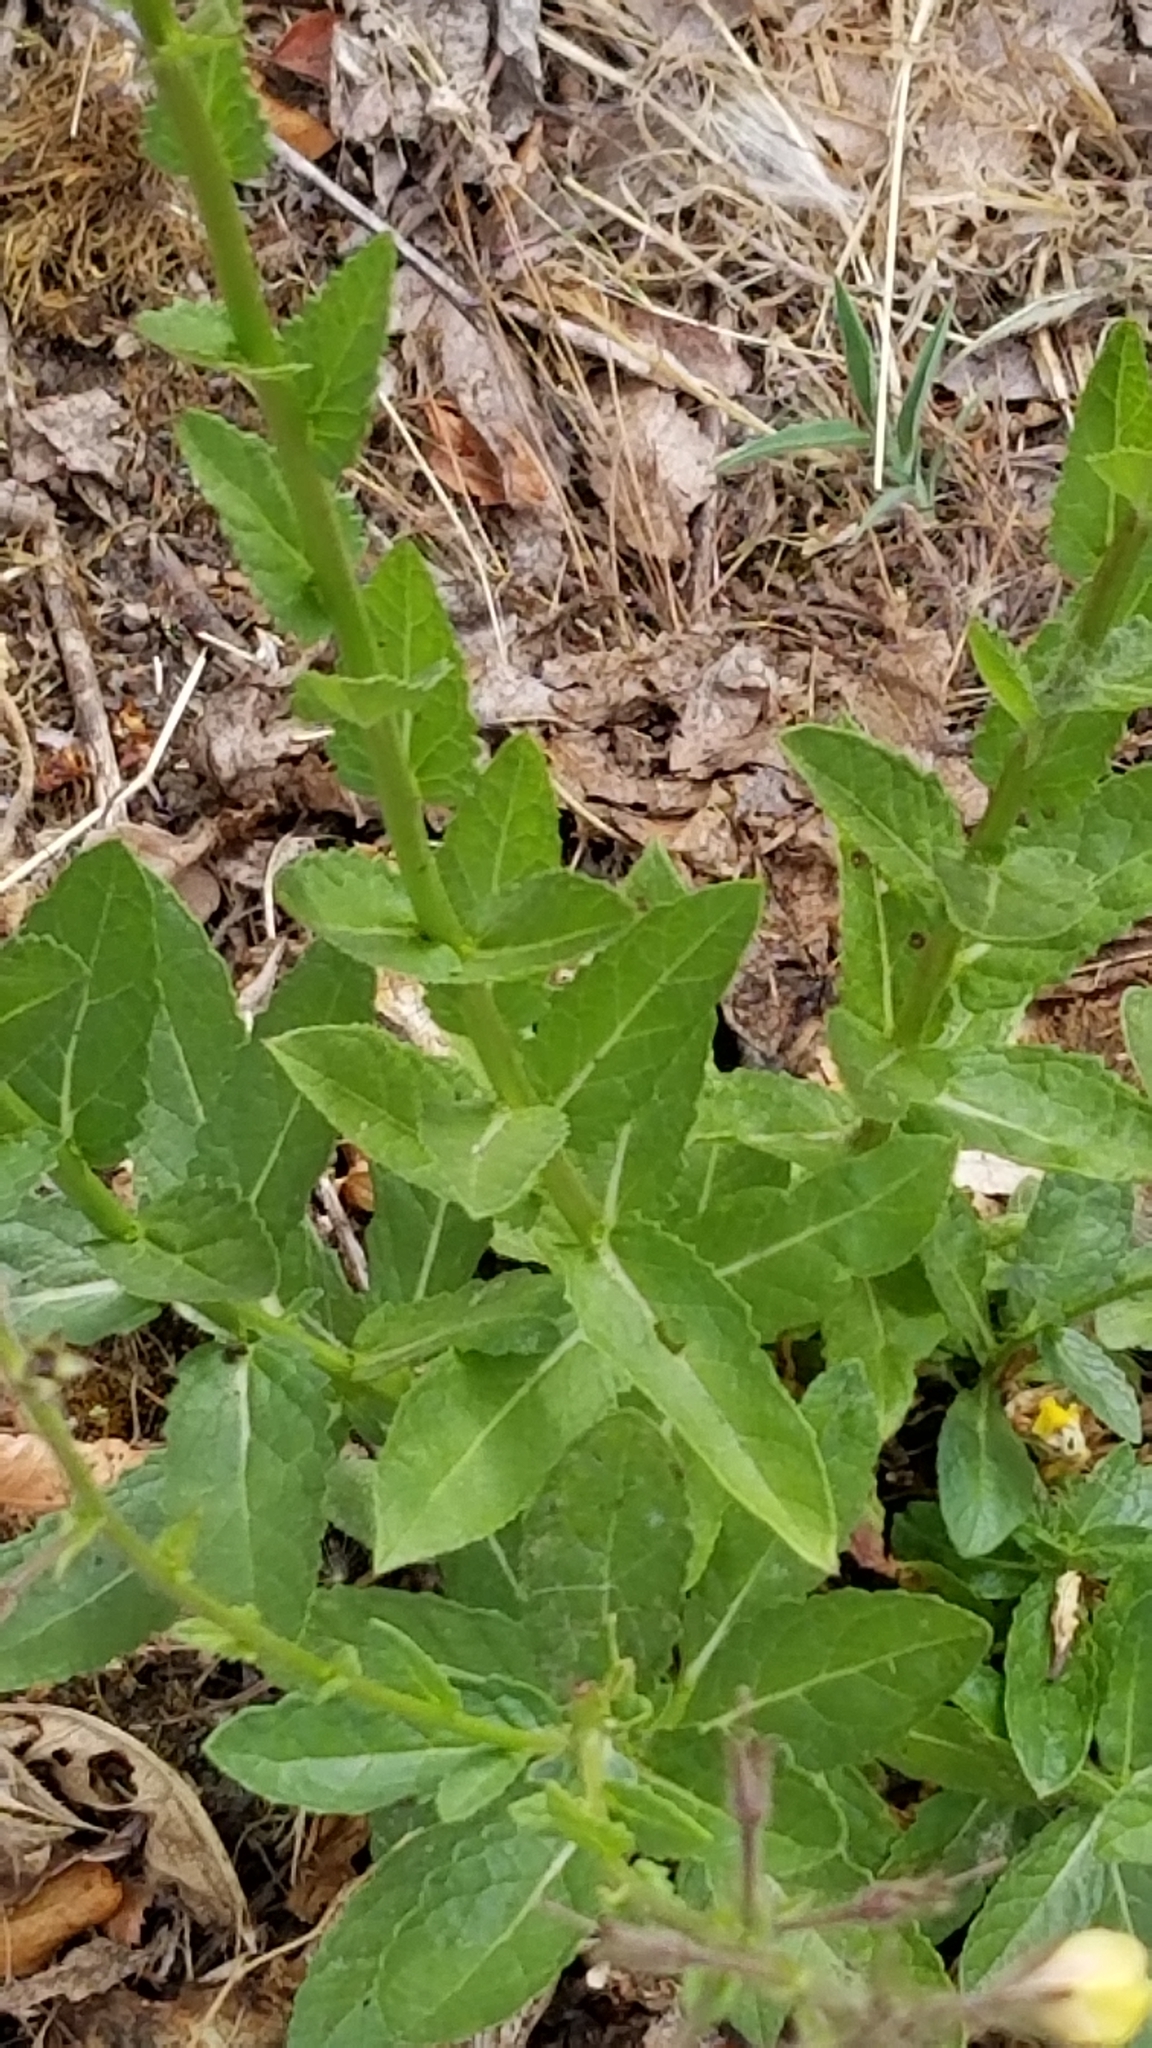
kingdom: Plantae
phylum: Tracheophyta
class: Magnoliopsida
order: Lamiales
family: Scrophulariaceae
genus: Verbascum
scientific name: Verbascum blattaria
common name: Moth mullein
